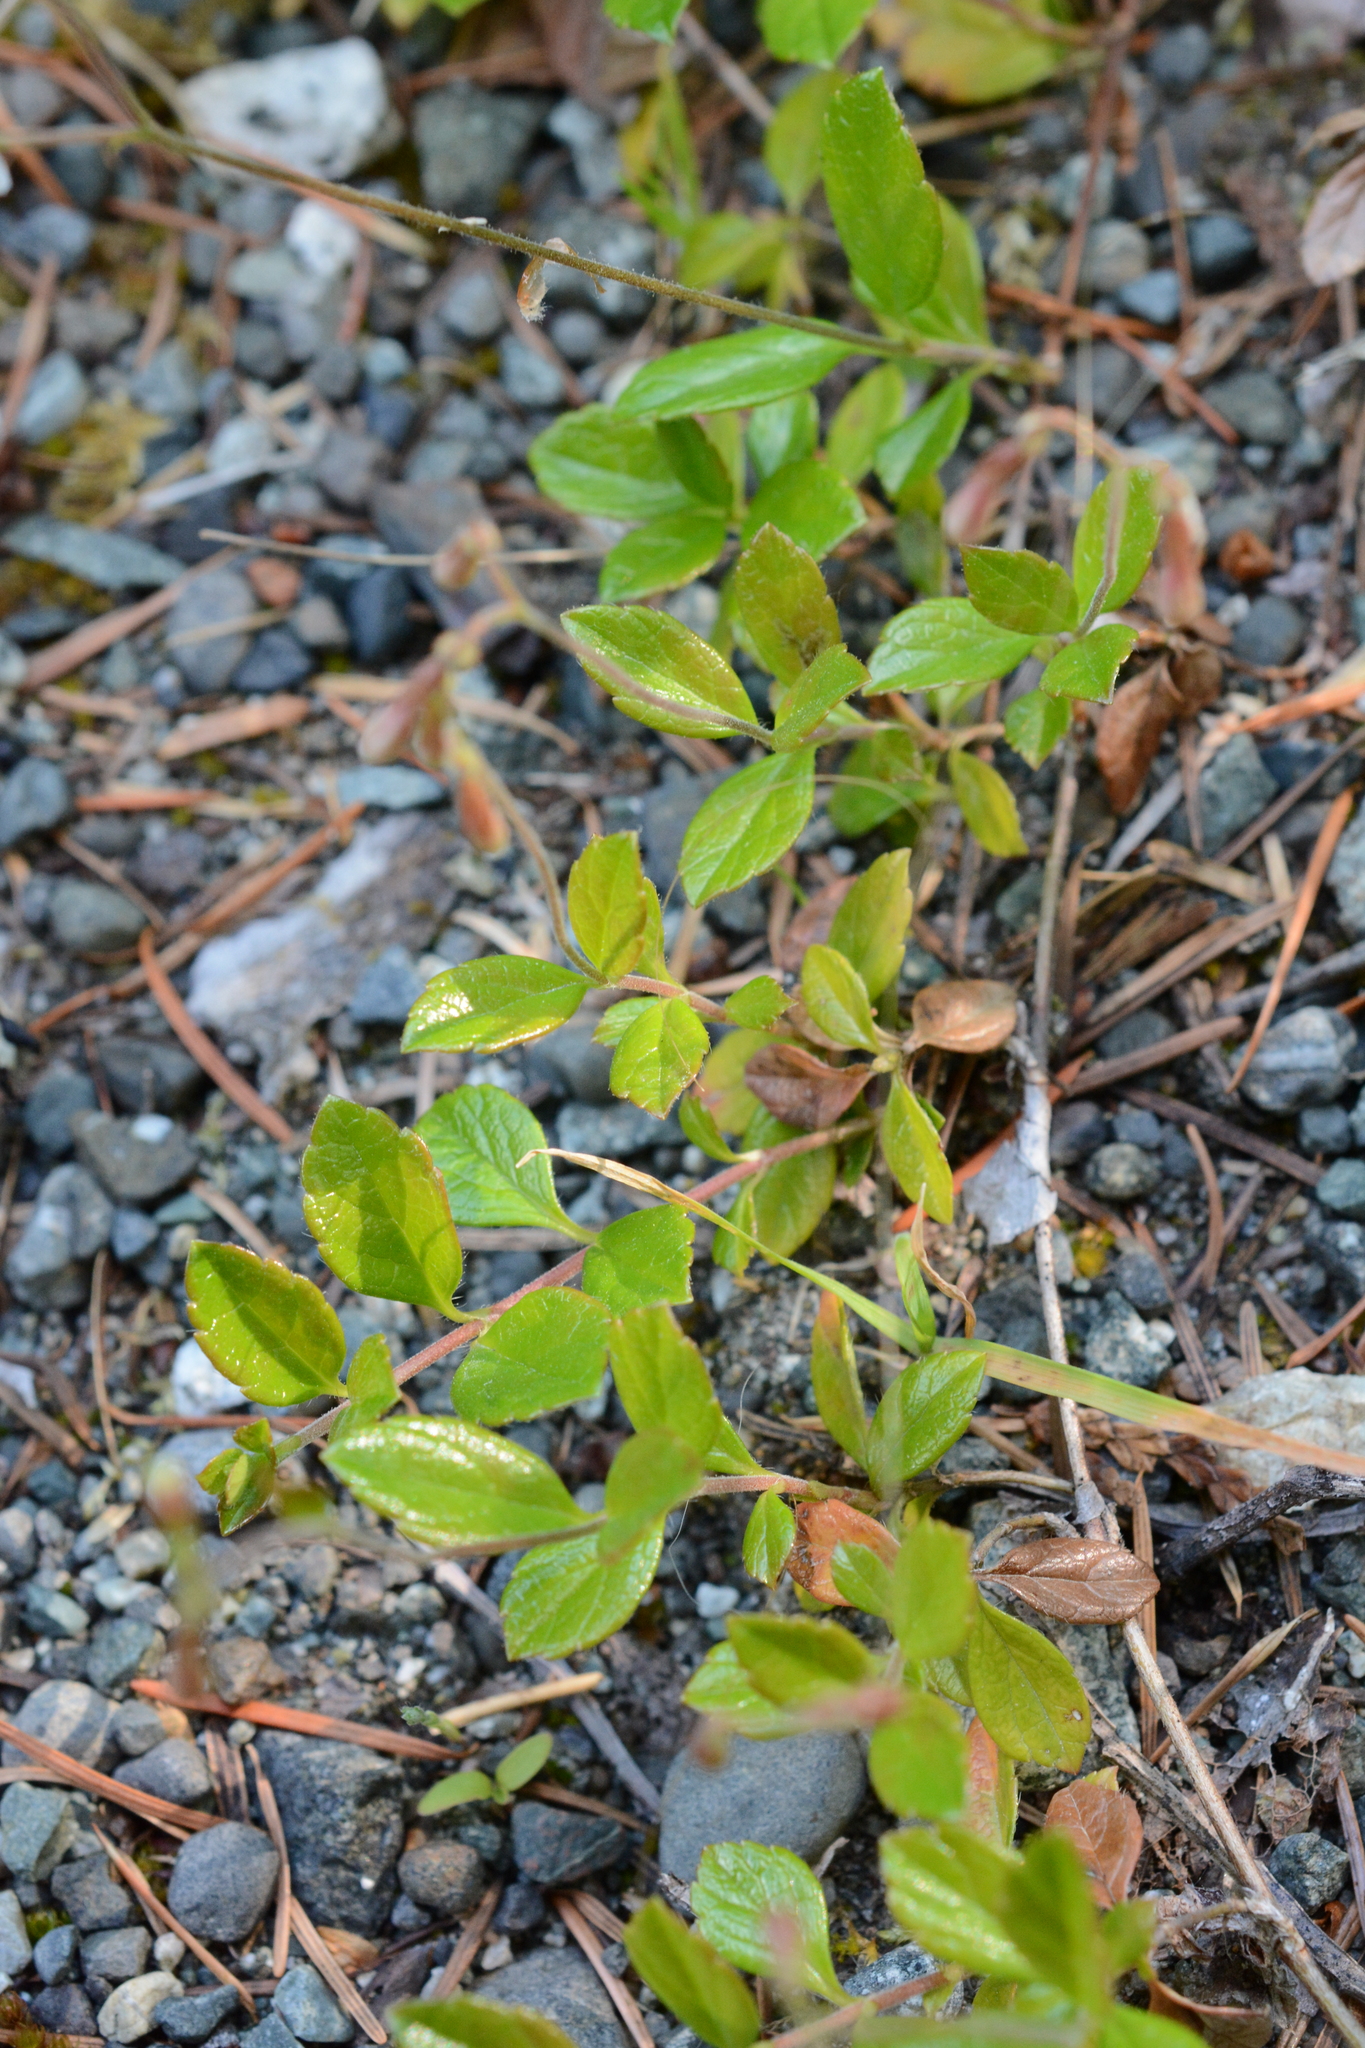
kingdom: Plantae
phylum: Tracheophyta
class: Magnoliopsida
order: Dipsacales
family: Caprifoliaceae
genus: Linnaea
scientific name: Linnaea borealis
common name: Twinflower
